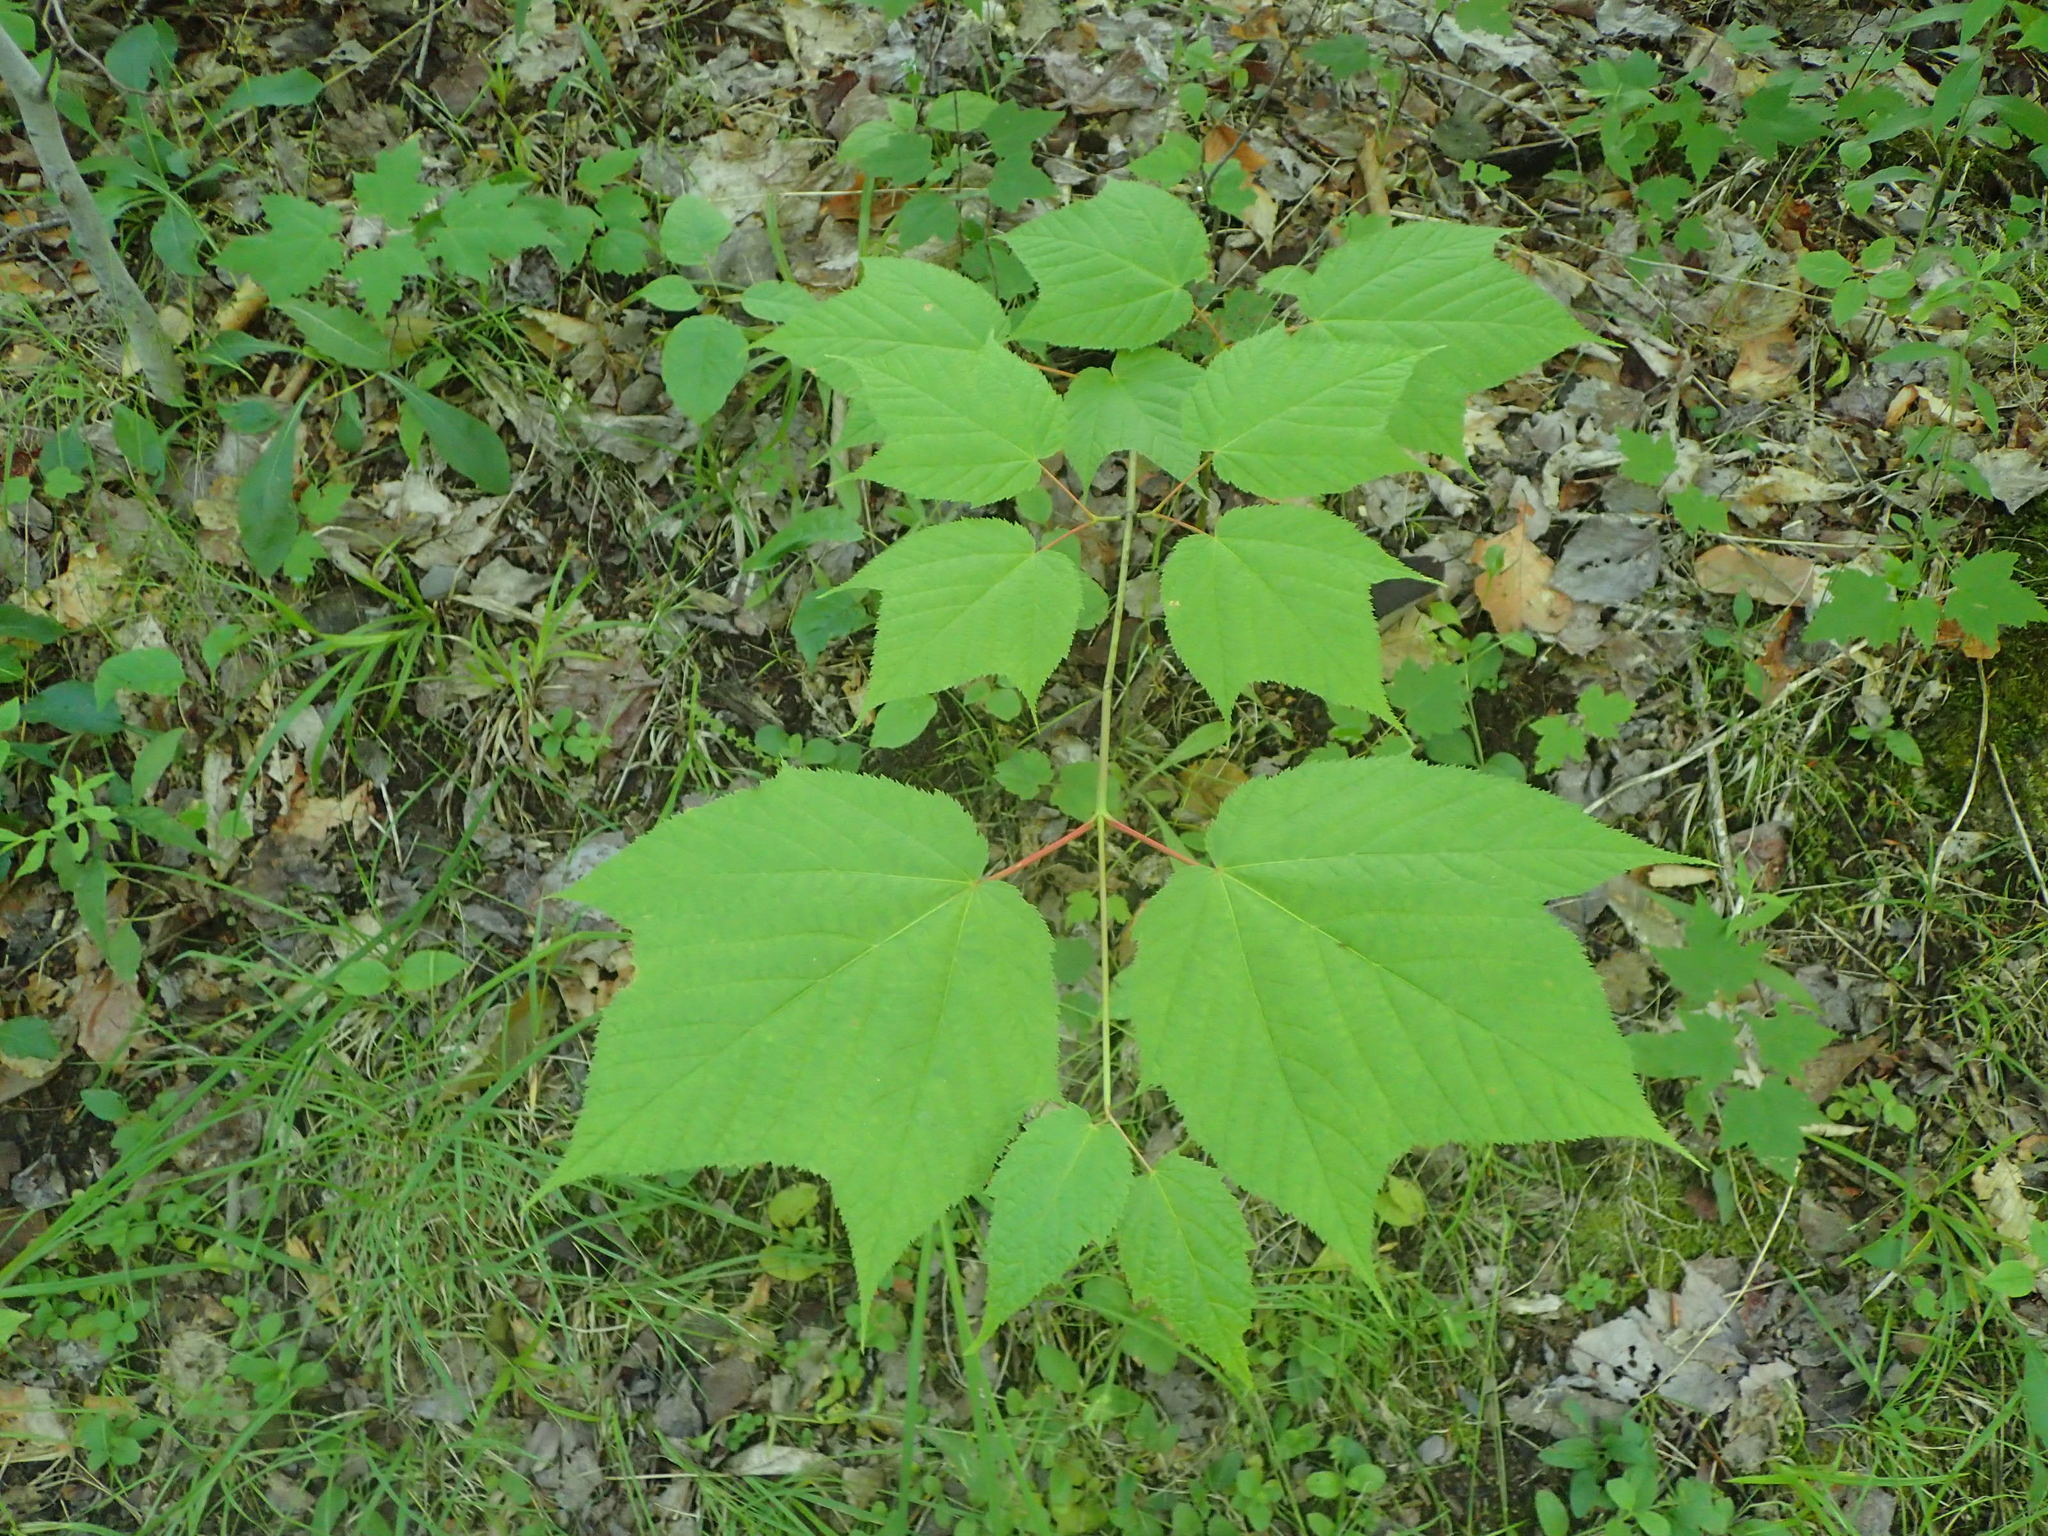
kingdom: Plantae
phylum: Tracheophyta
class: Magnoliopsida
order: Sapindales
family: Sapindaceae
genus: Acer
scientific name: Acer pensylvanicum
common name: Moosewood
